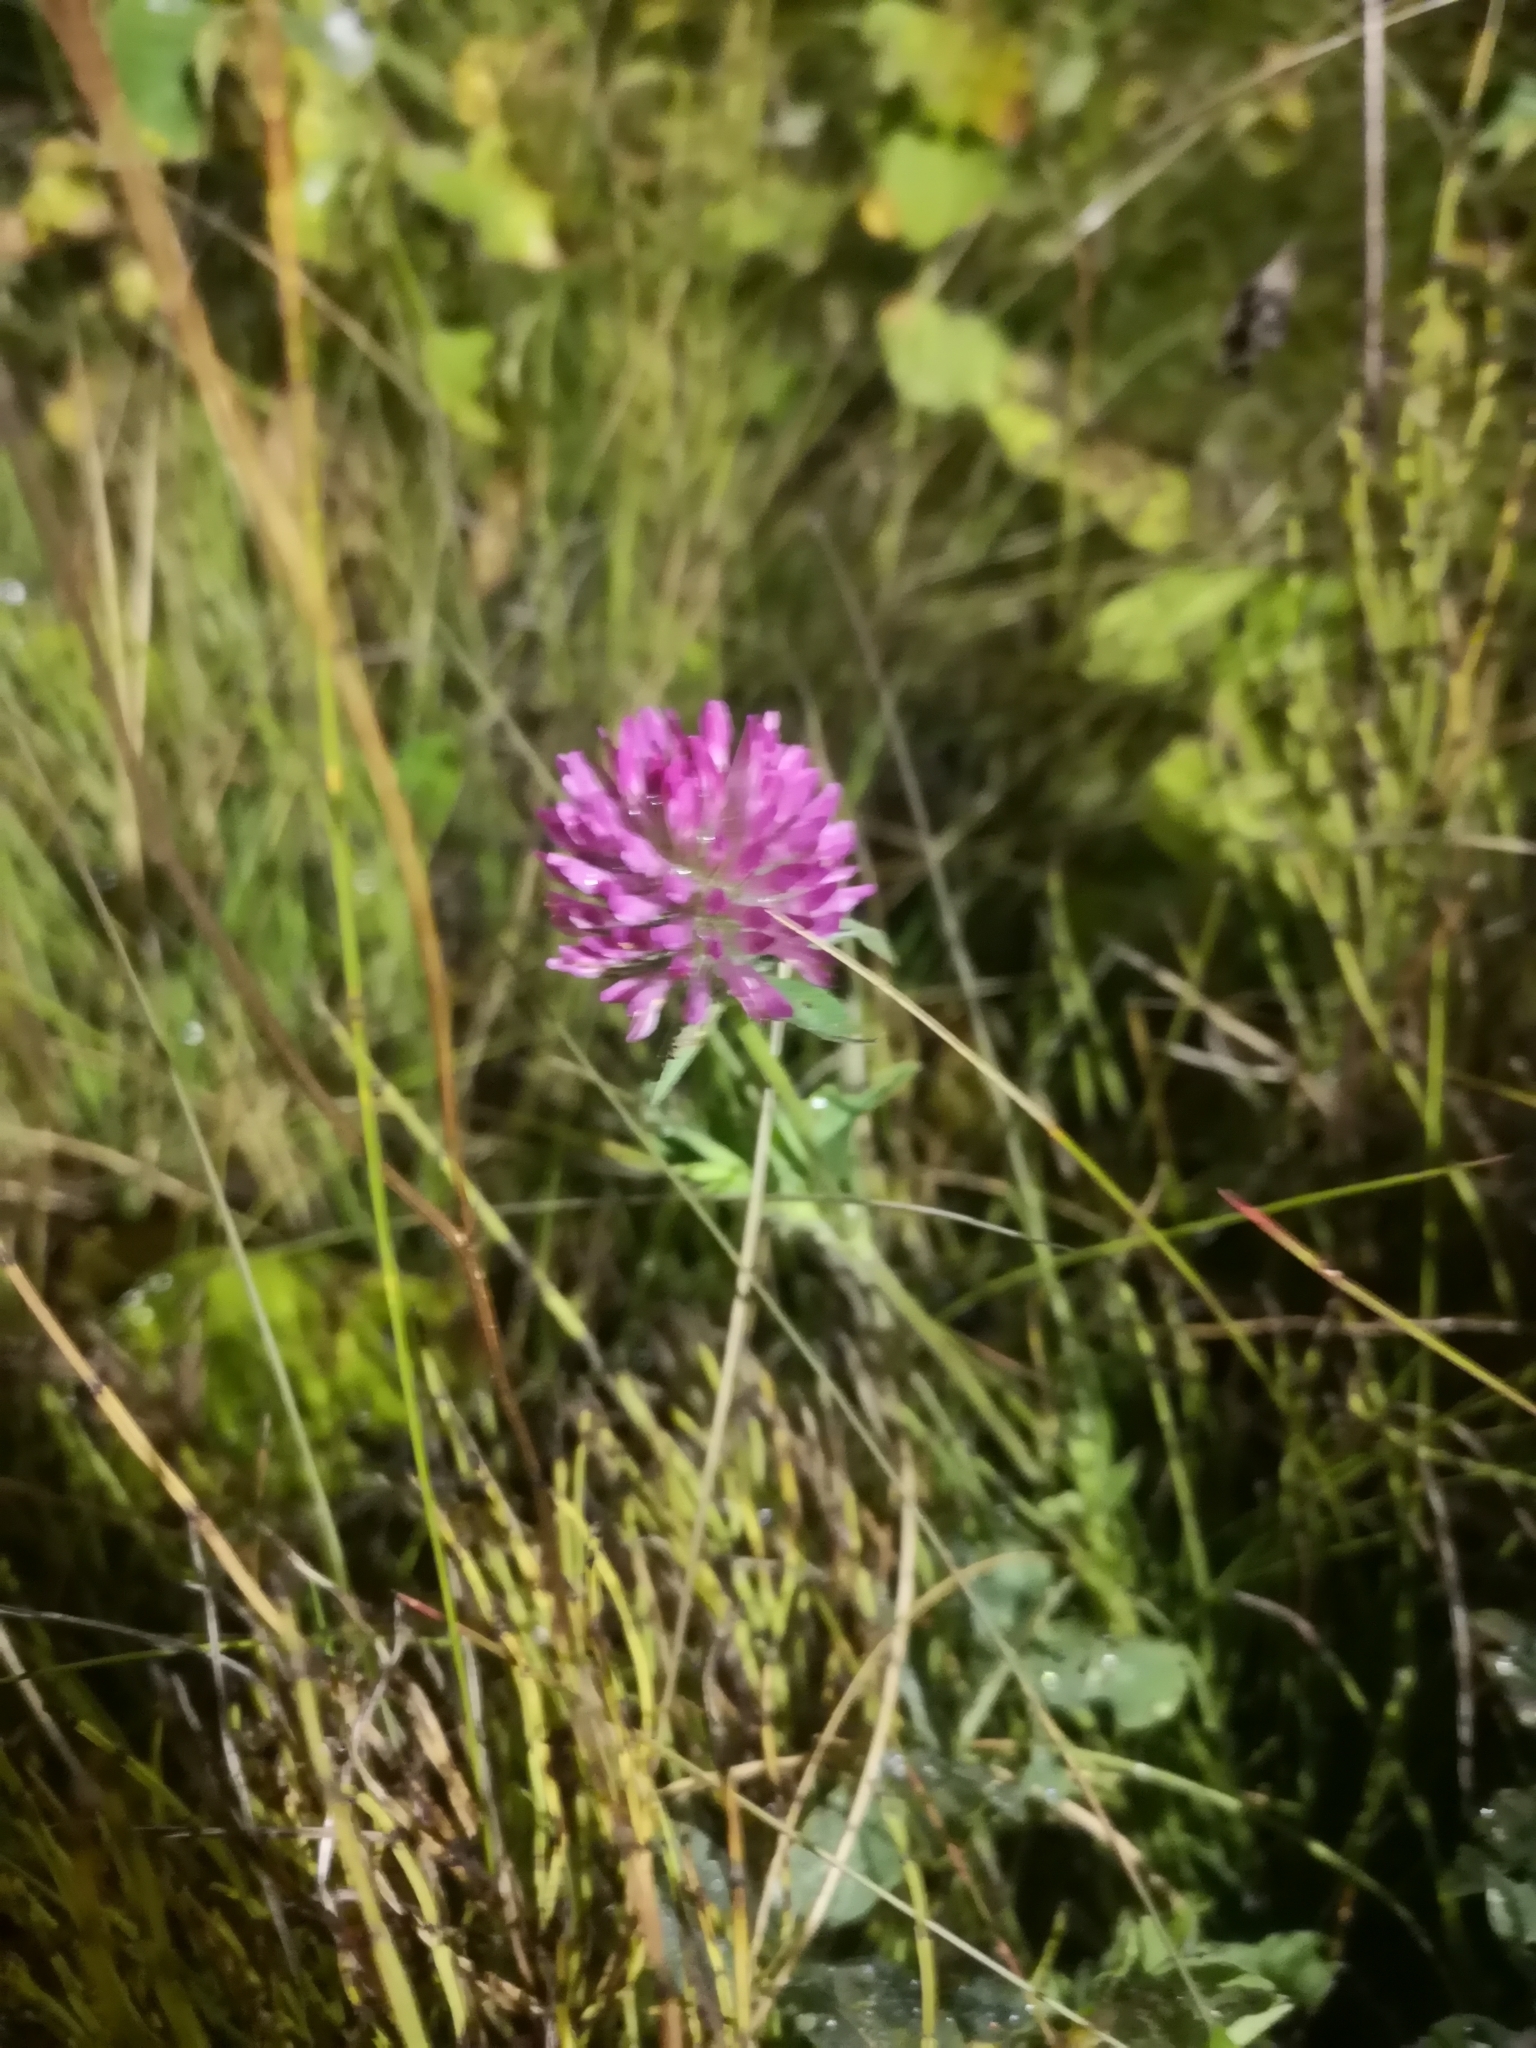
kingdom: Plantae
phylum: Tracheophyta
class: Magnoliopsida
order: Fabales
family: Fabaceae
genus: Trifolium
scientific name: Trifolium pratense
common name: Red clover
